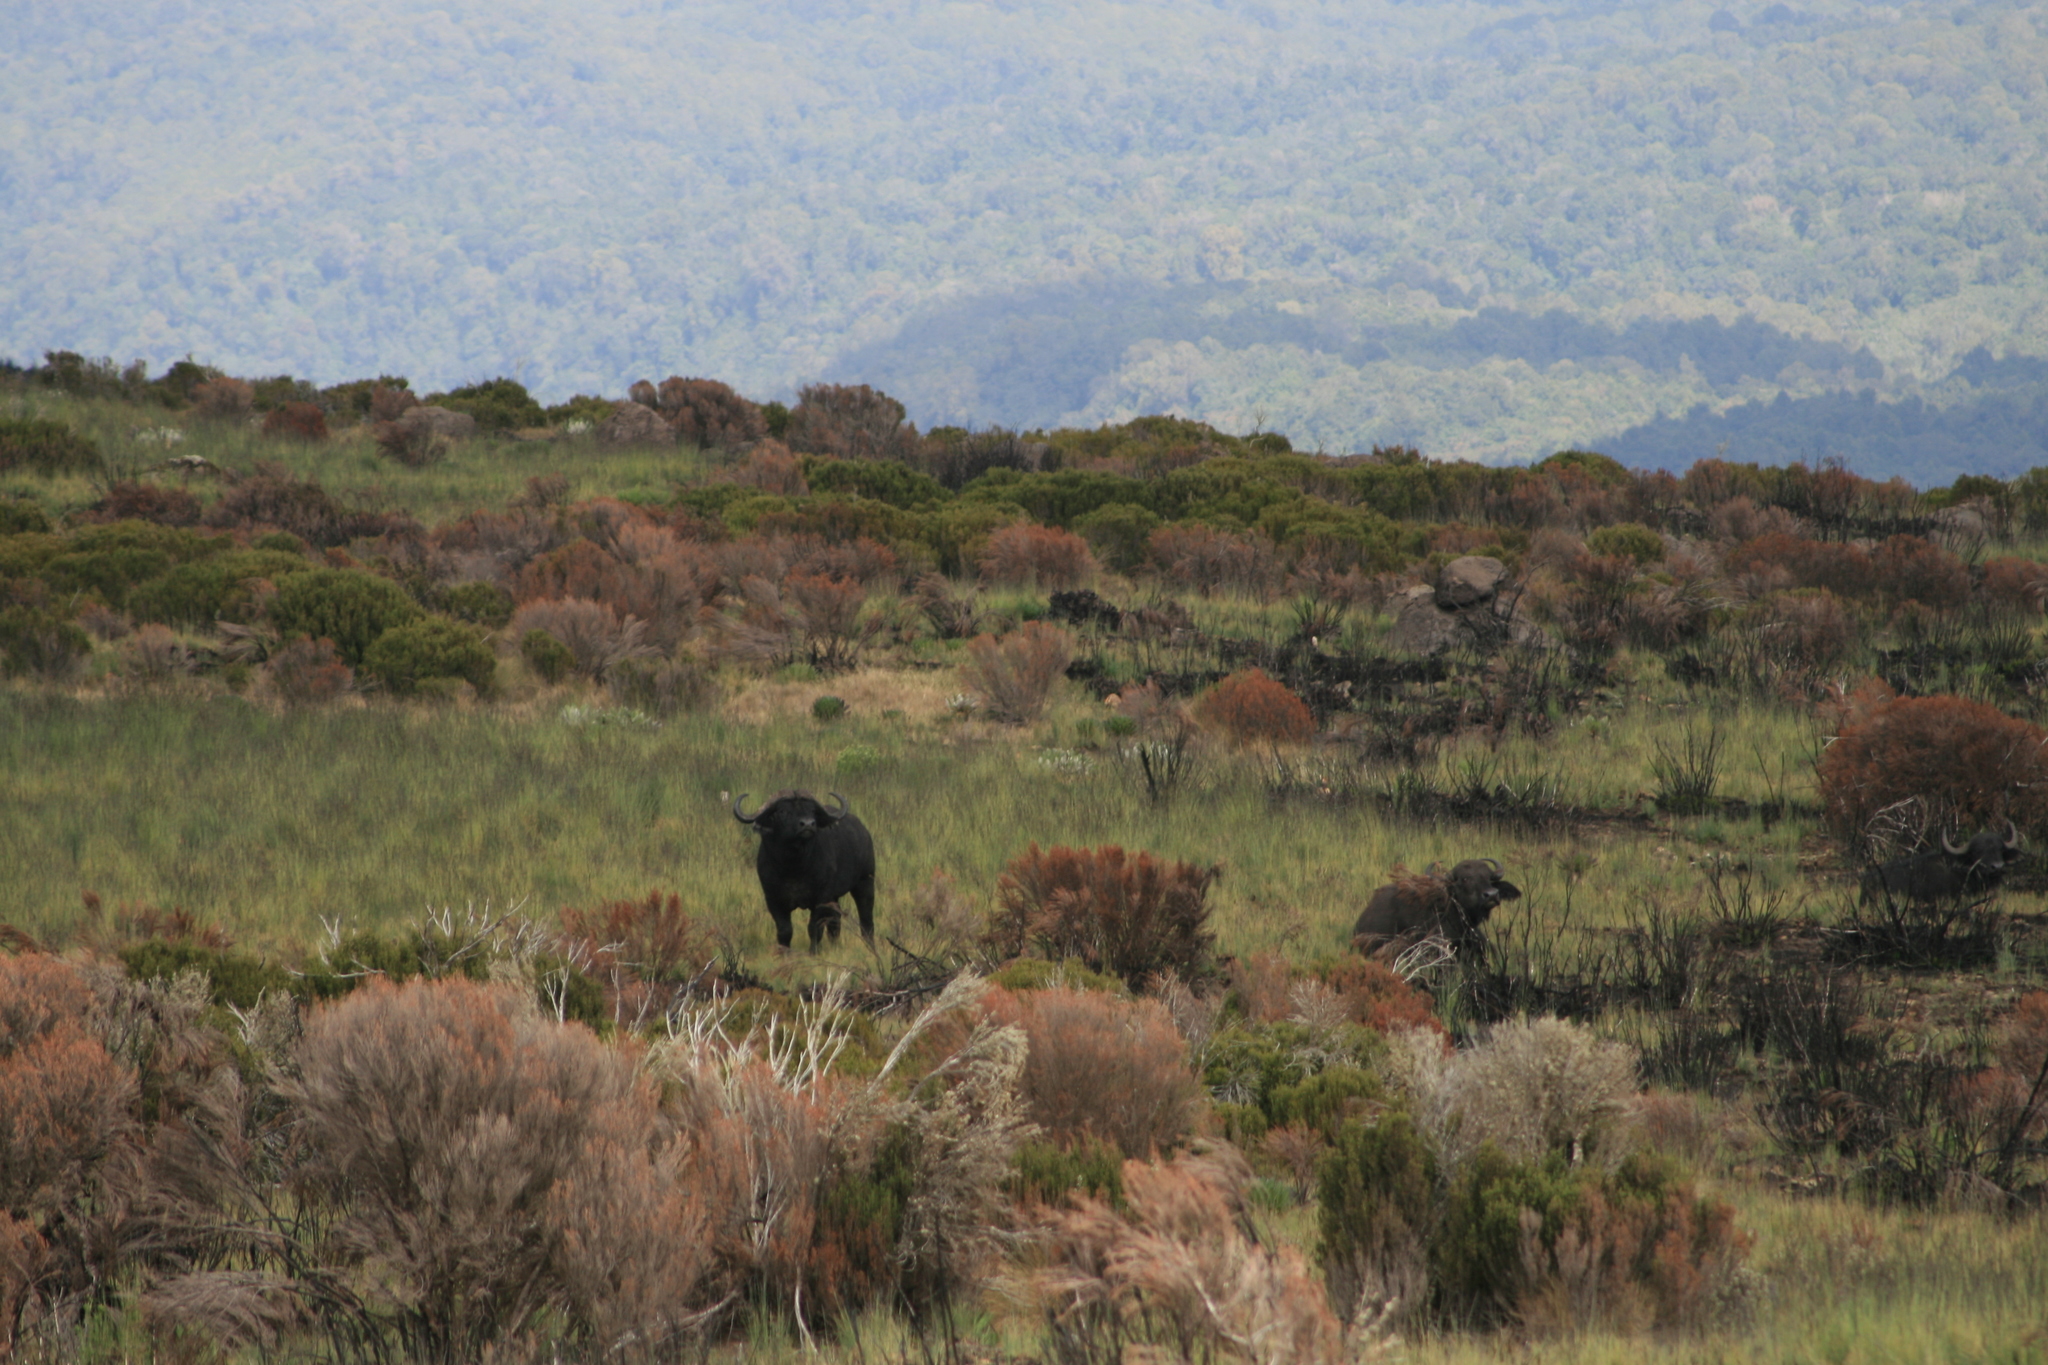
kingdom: Animalia
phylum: Chordata
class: Mammalia
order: Artiodactyla
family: Bovidae
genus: Syncerus
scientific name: Syncerus caffer
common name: African buffalo
